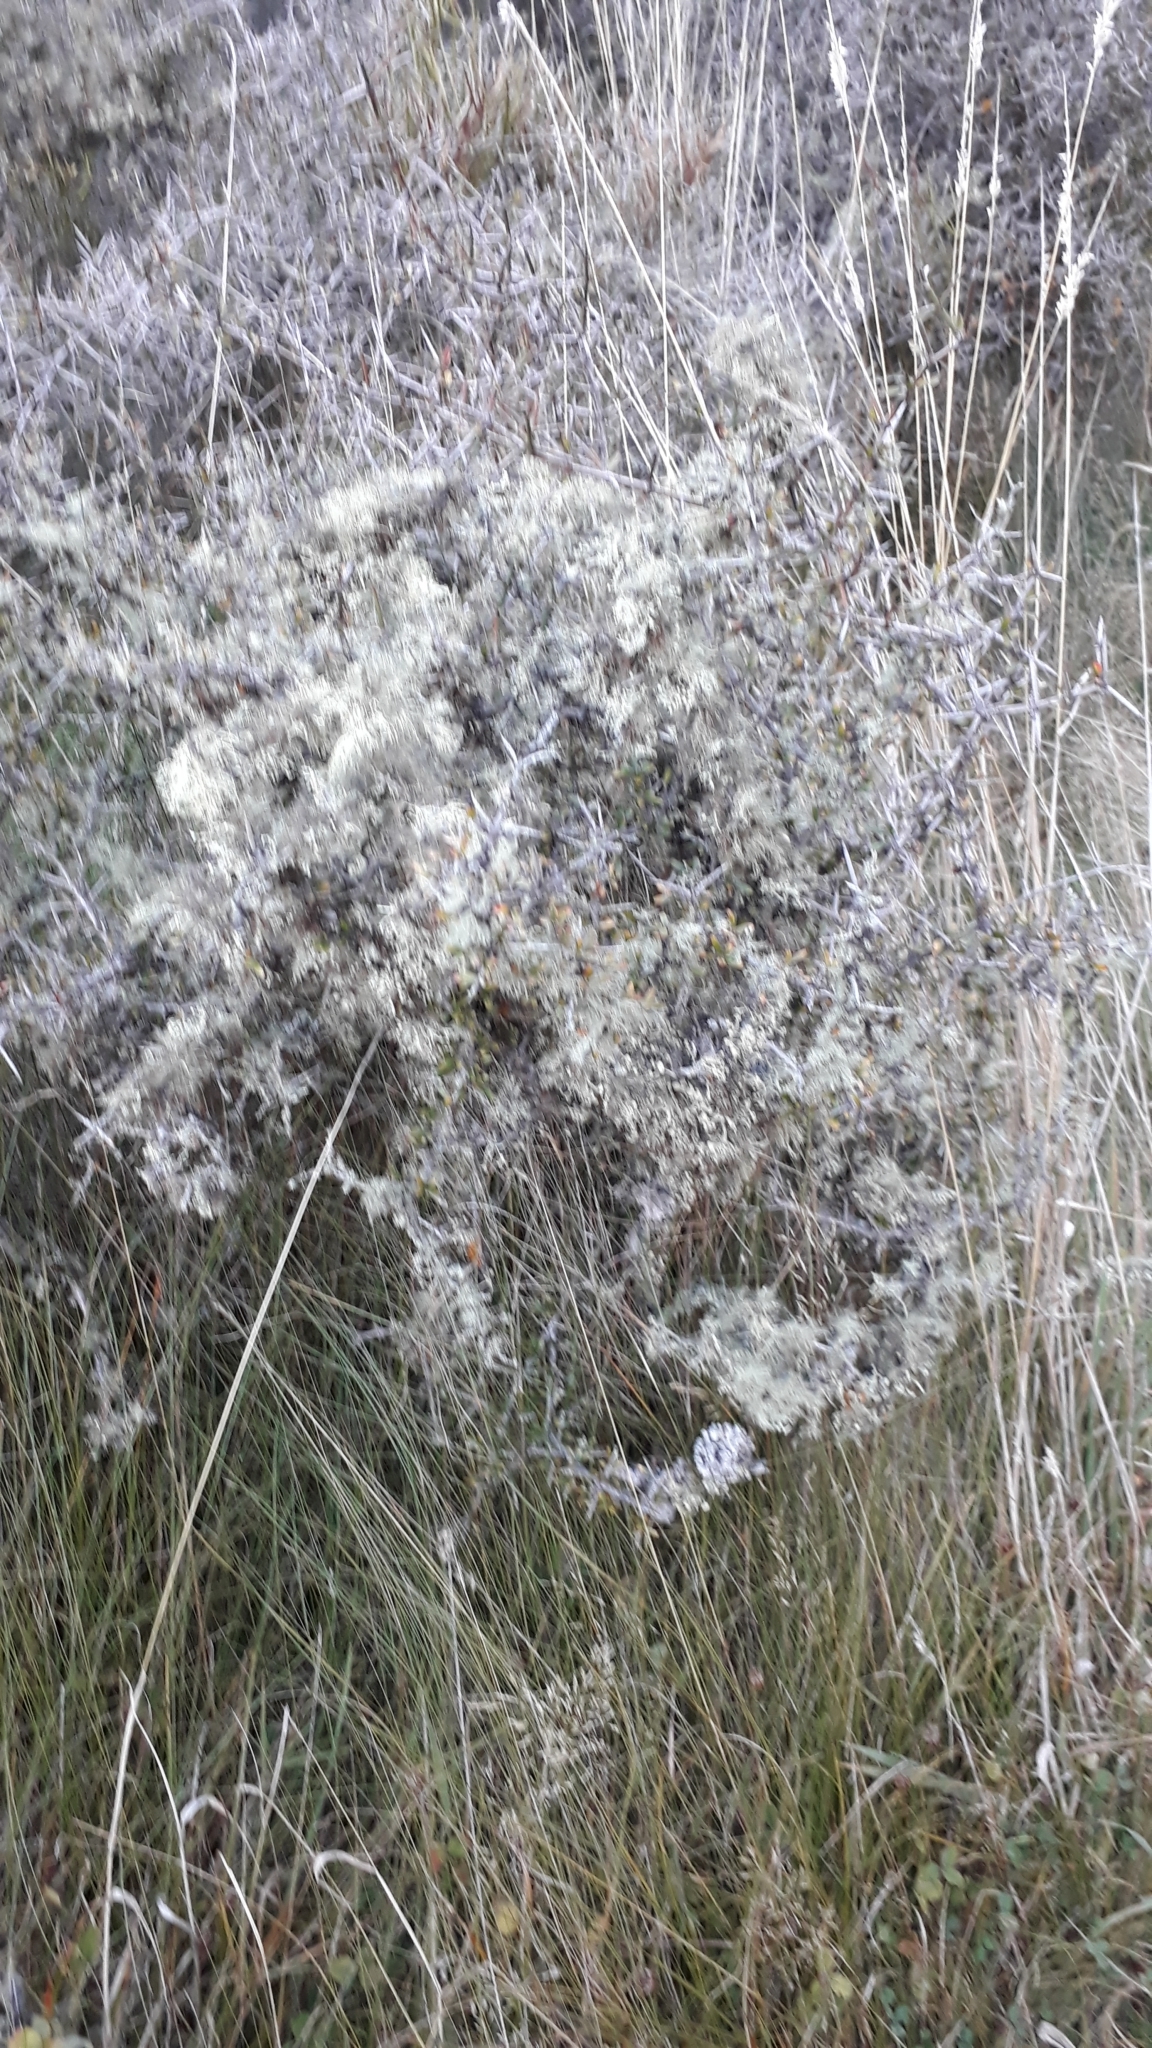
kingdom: Plantae
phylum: Tracheophyta
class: Magnoliopsida
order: Rosales
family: Rhamnaceae
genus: Discaria
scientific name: Discaria toumatou
